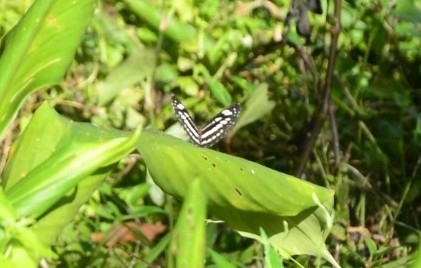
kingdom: Animalia
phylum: Arthropoda
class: Insecta
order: Lepidoptera
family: Nymphalidae
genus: Neptis
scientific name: Neptis hylas
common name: Common sailer
